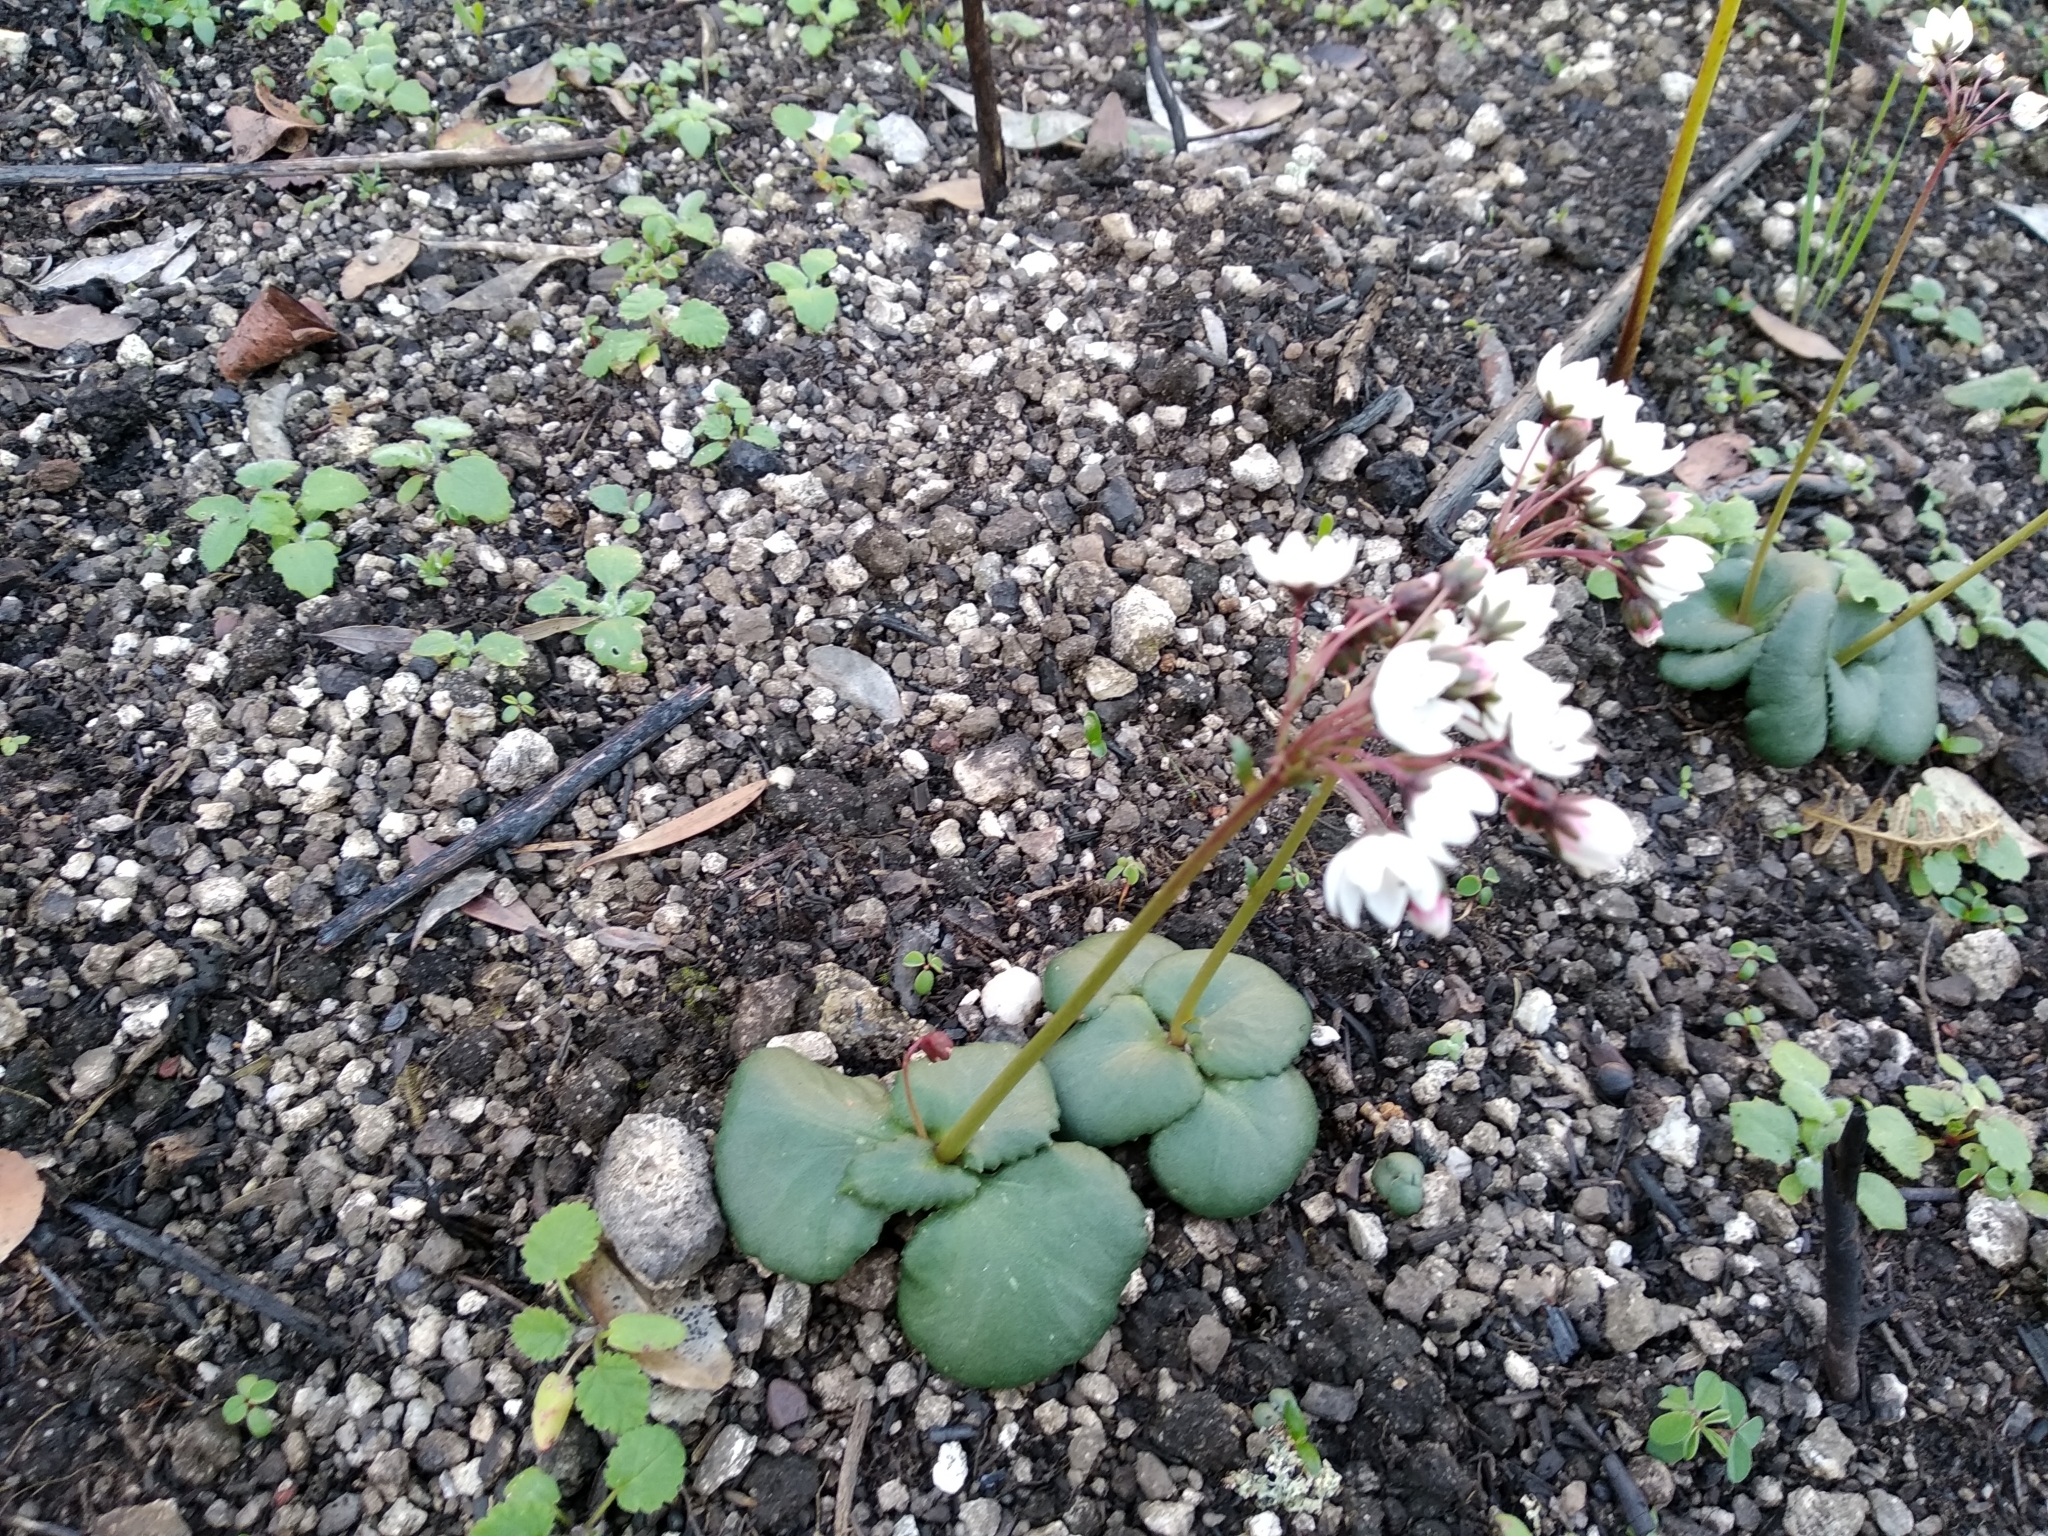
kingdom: Plantae
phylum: Tracheophyta
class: Magnoliopsida
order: Saxifragales
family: Crassulaceae
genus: Crassula
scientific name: Crassula capensis
